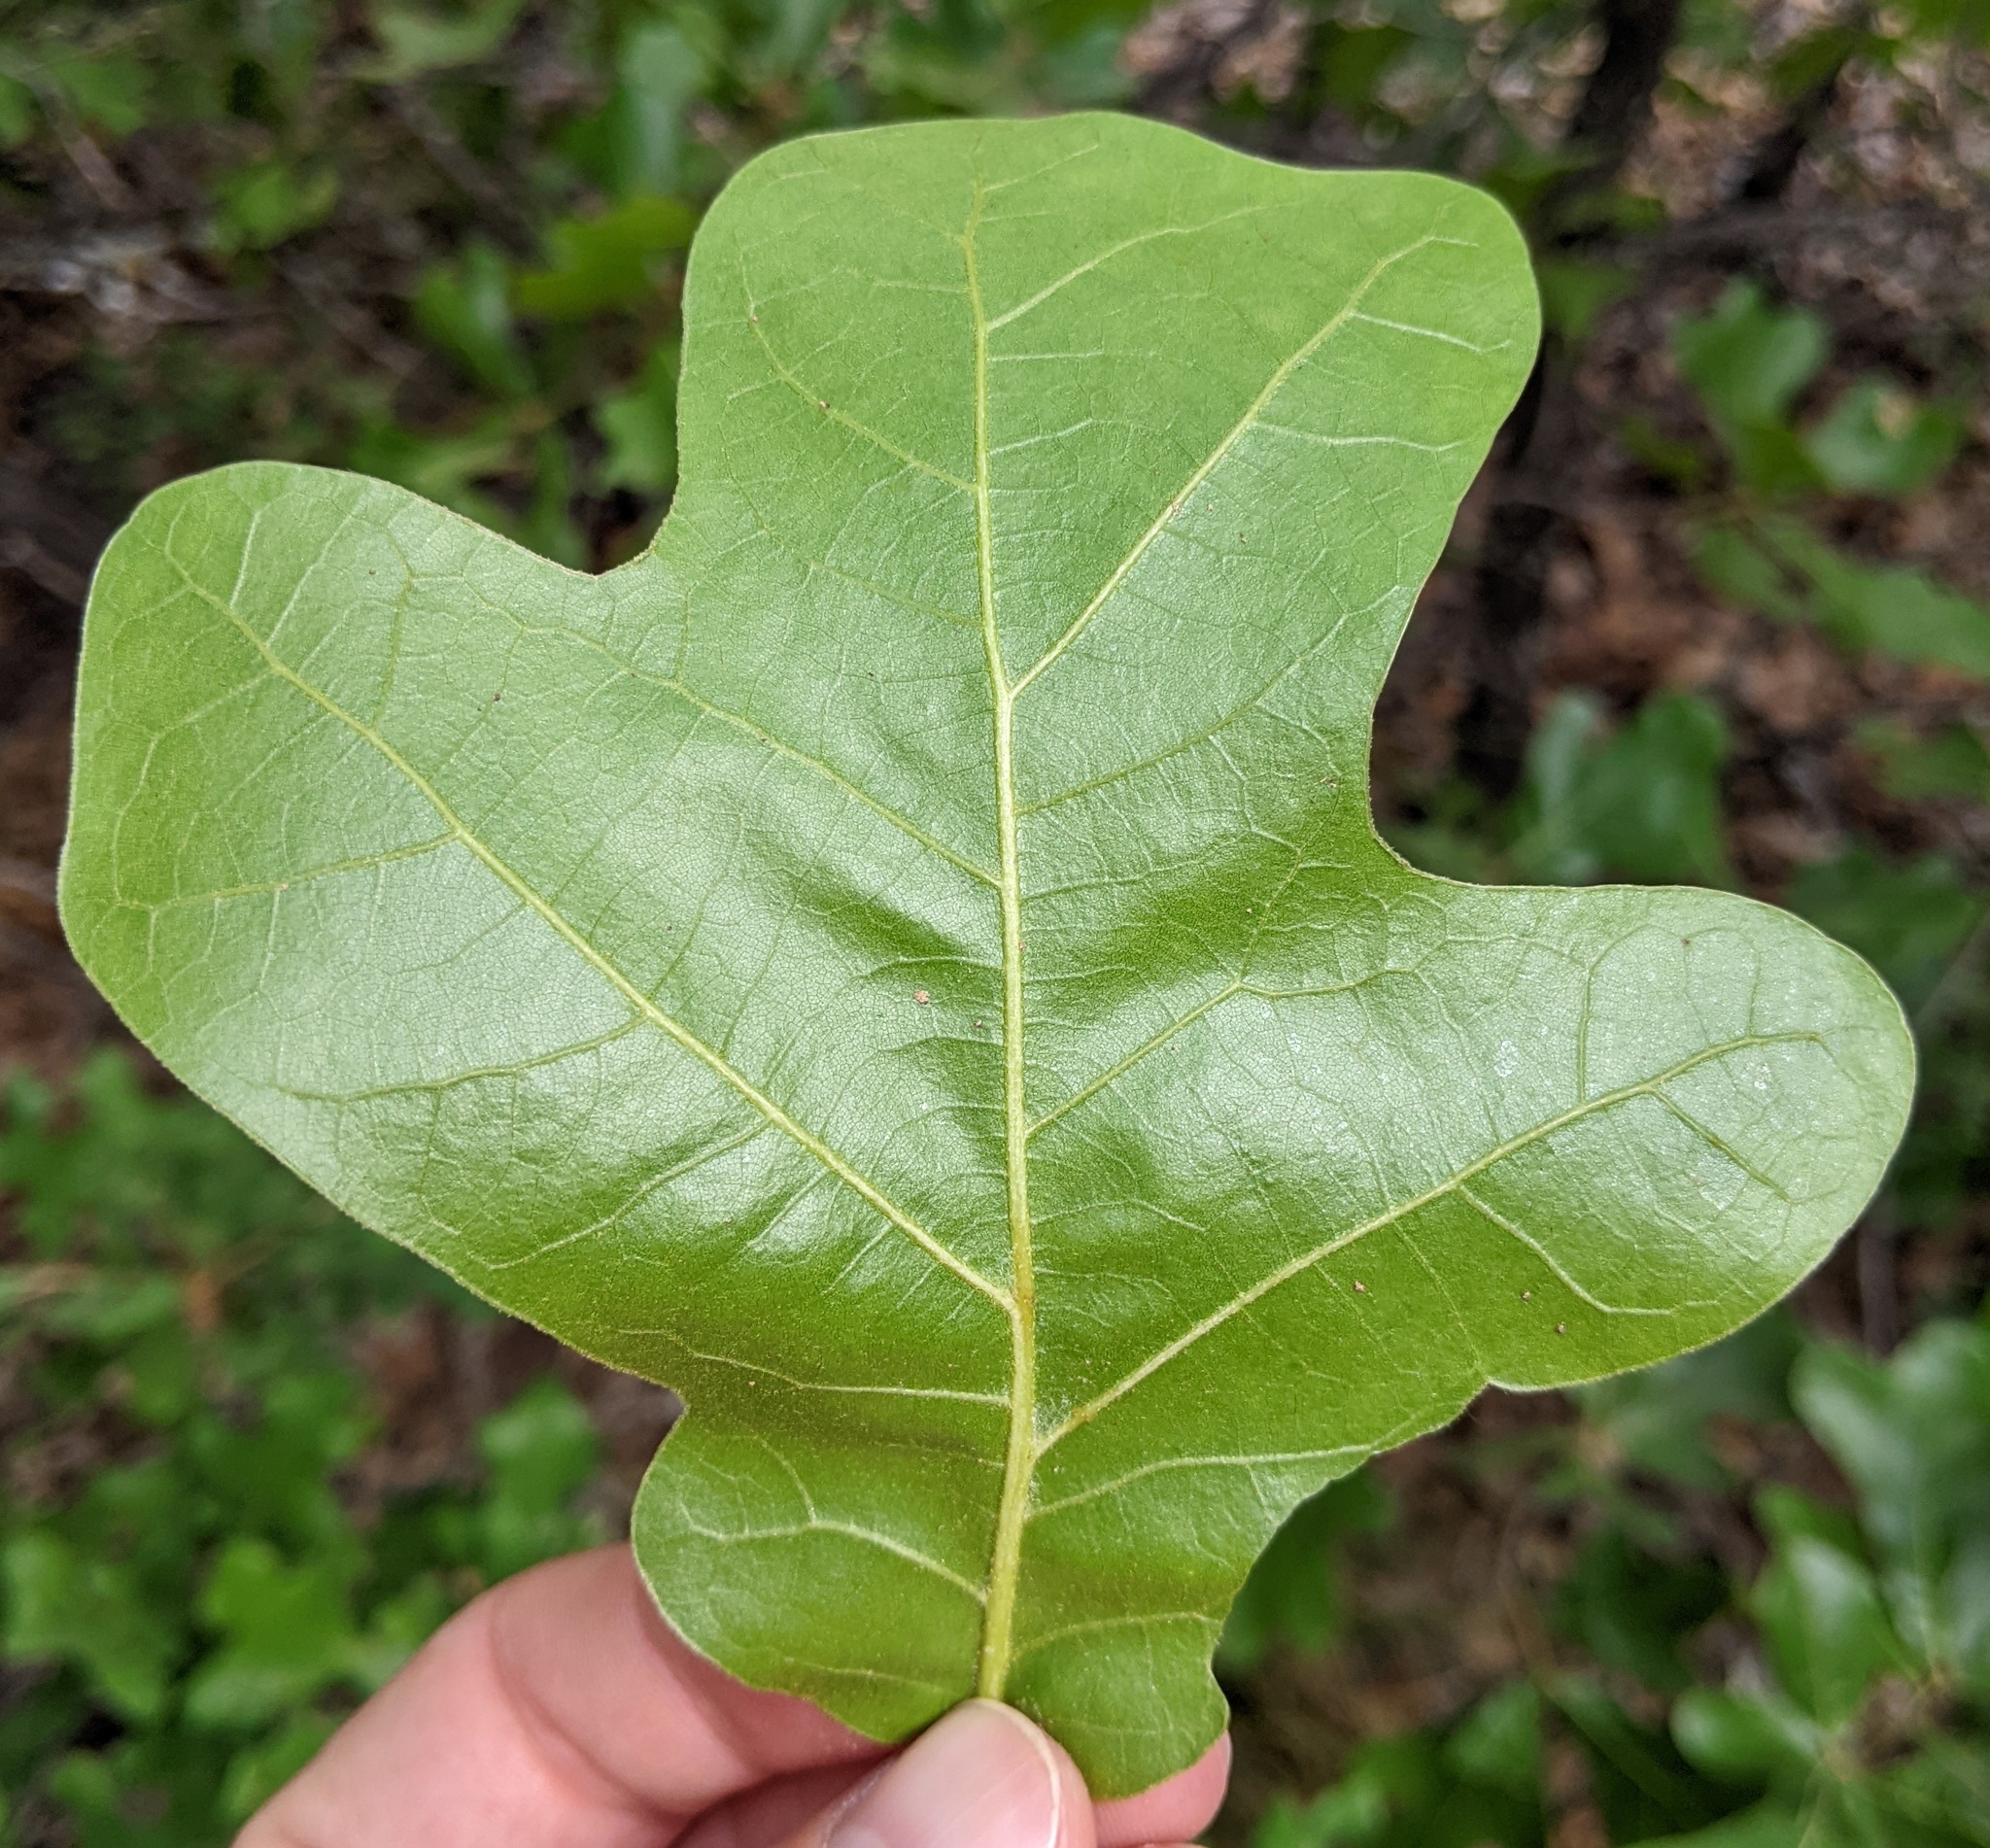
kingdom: Plantae
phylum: Tracheophyta
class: Magnoliopsida
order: Fagales
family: Fagaceae
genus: Quercus
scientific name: Quercus marilandica
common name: Blackjack oak
